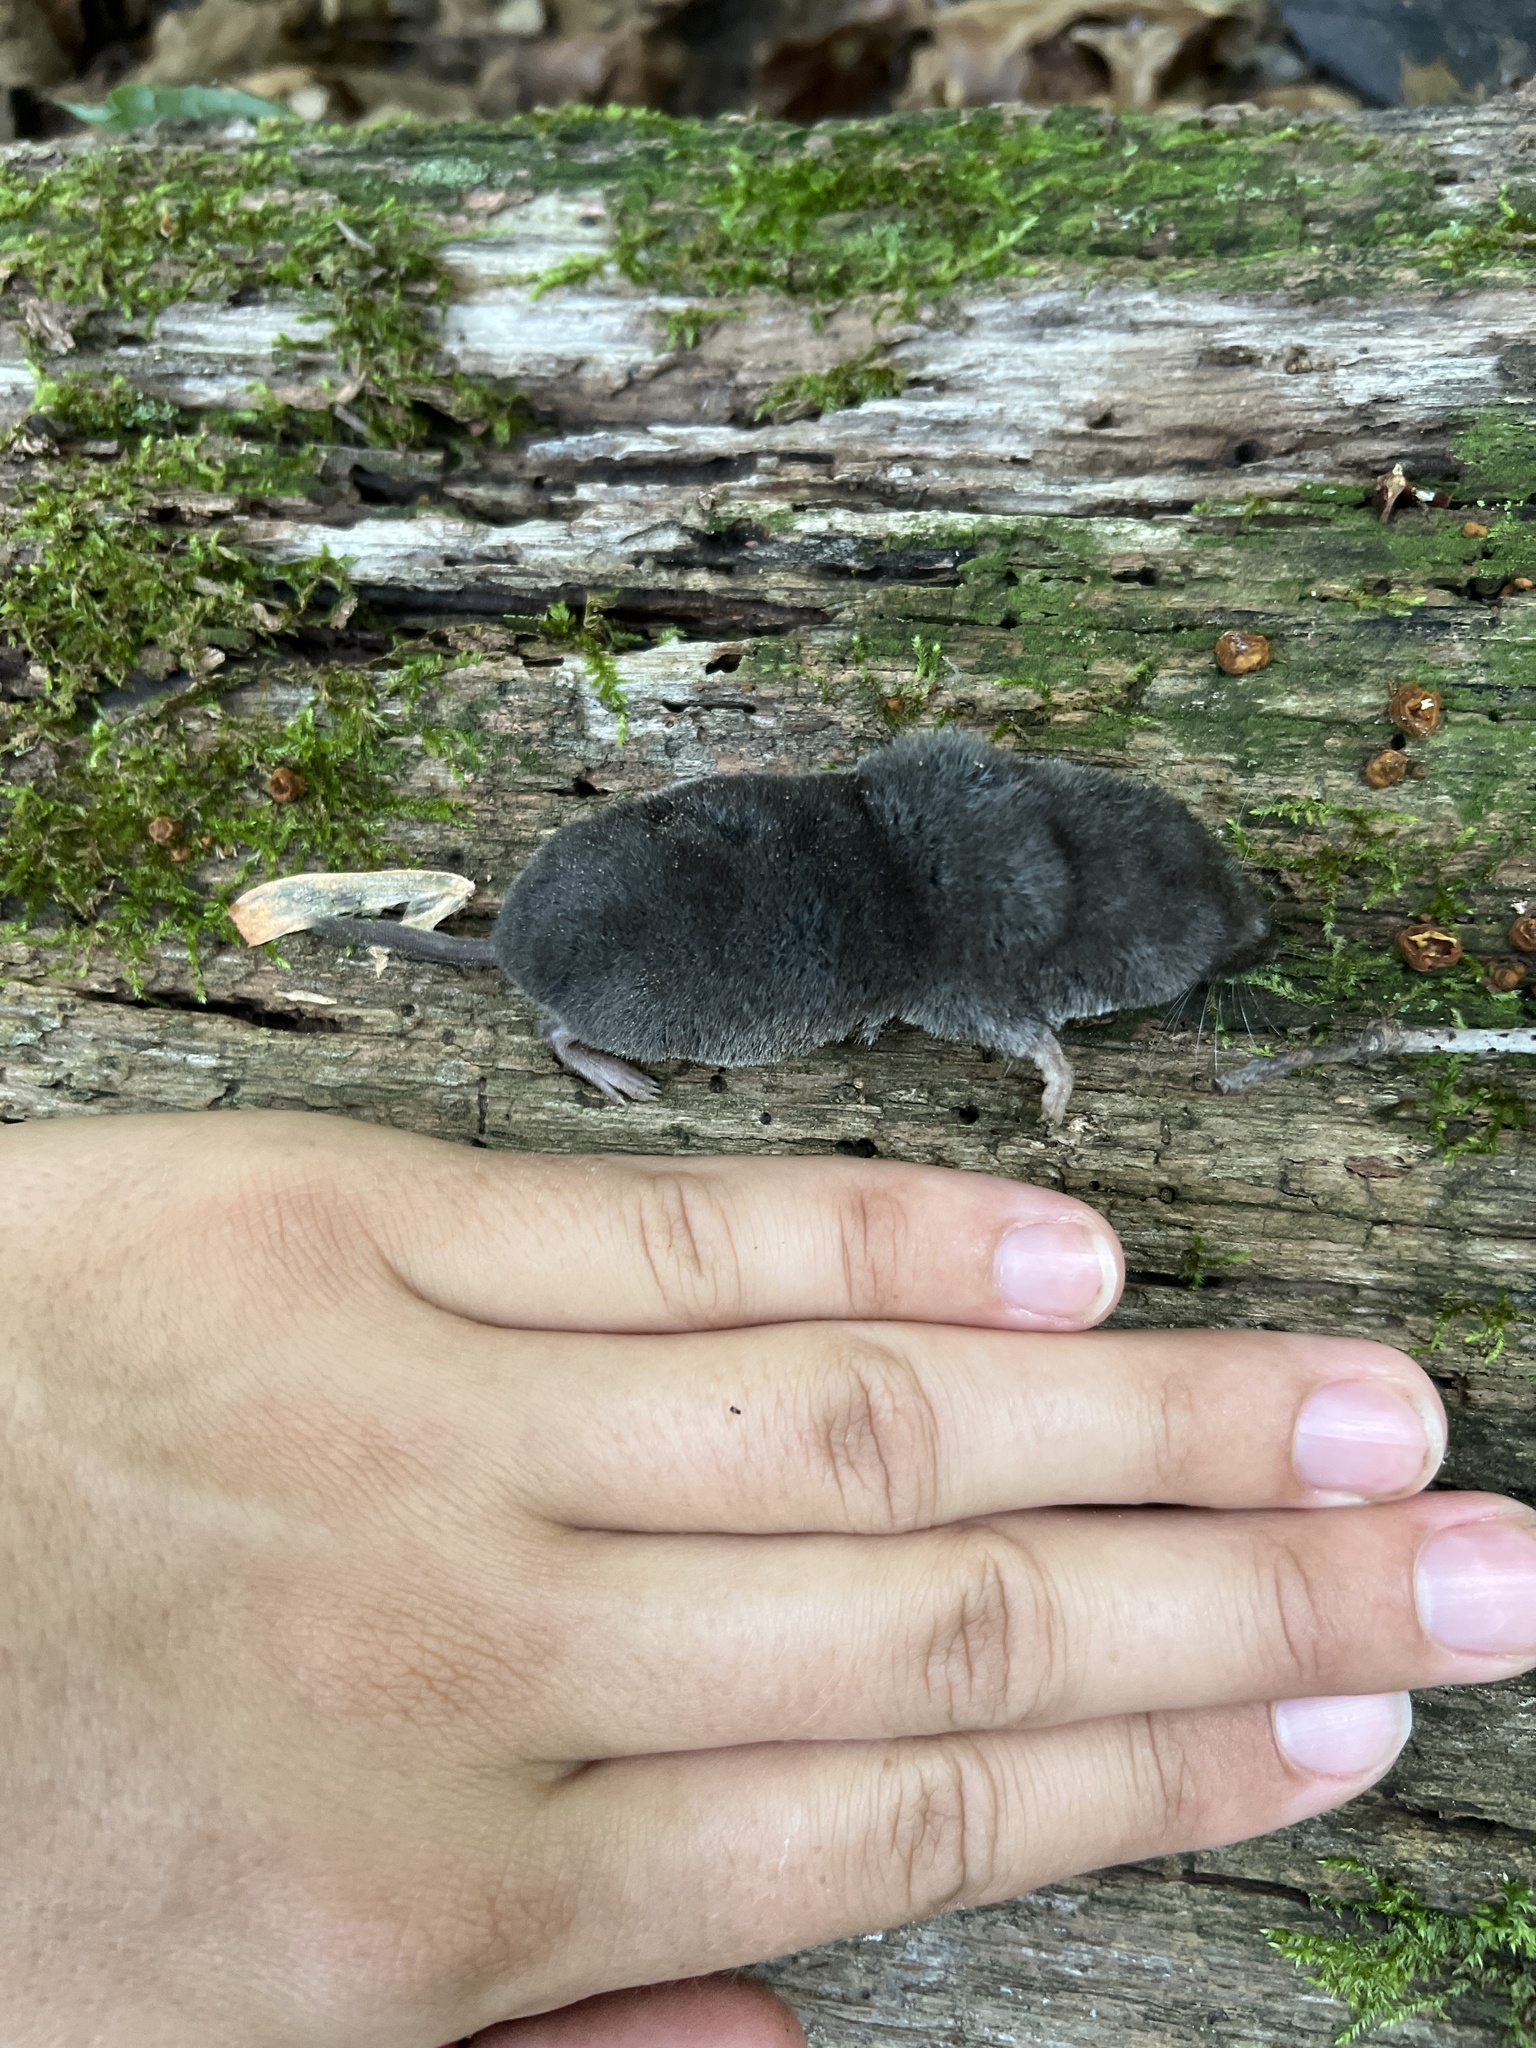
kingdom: Animalia
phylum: Chordata
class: Mammalia
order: Soricomorpha
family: Soricidae
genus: Blarina
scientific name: Blarina brevicauda
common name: Northern short-tailed shrew
